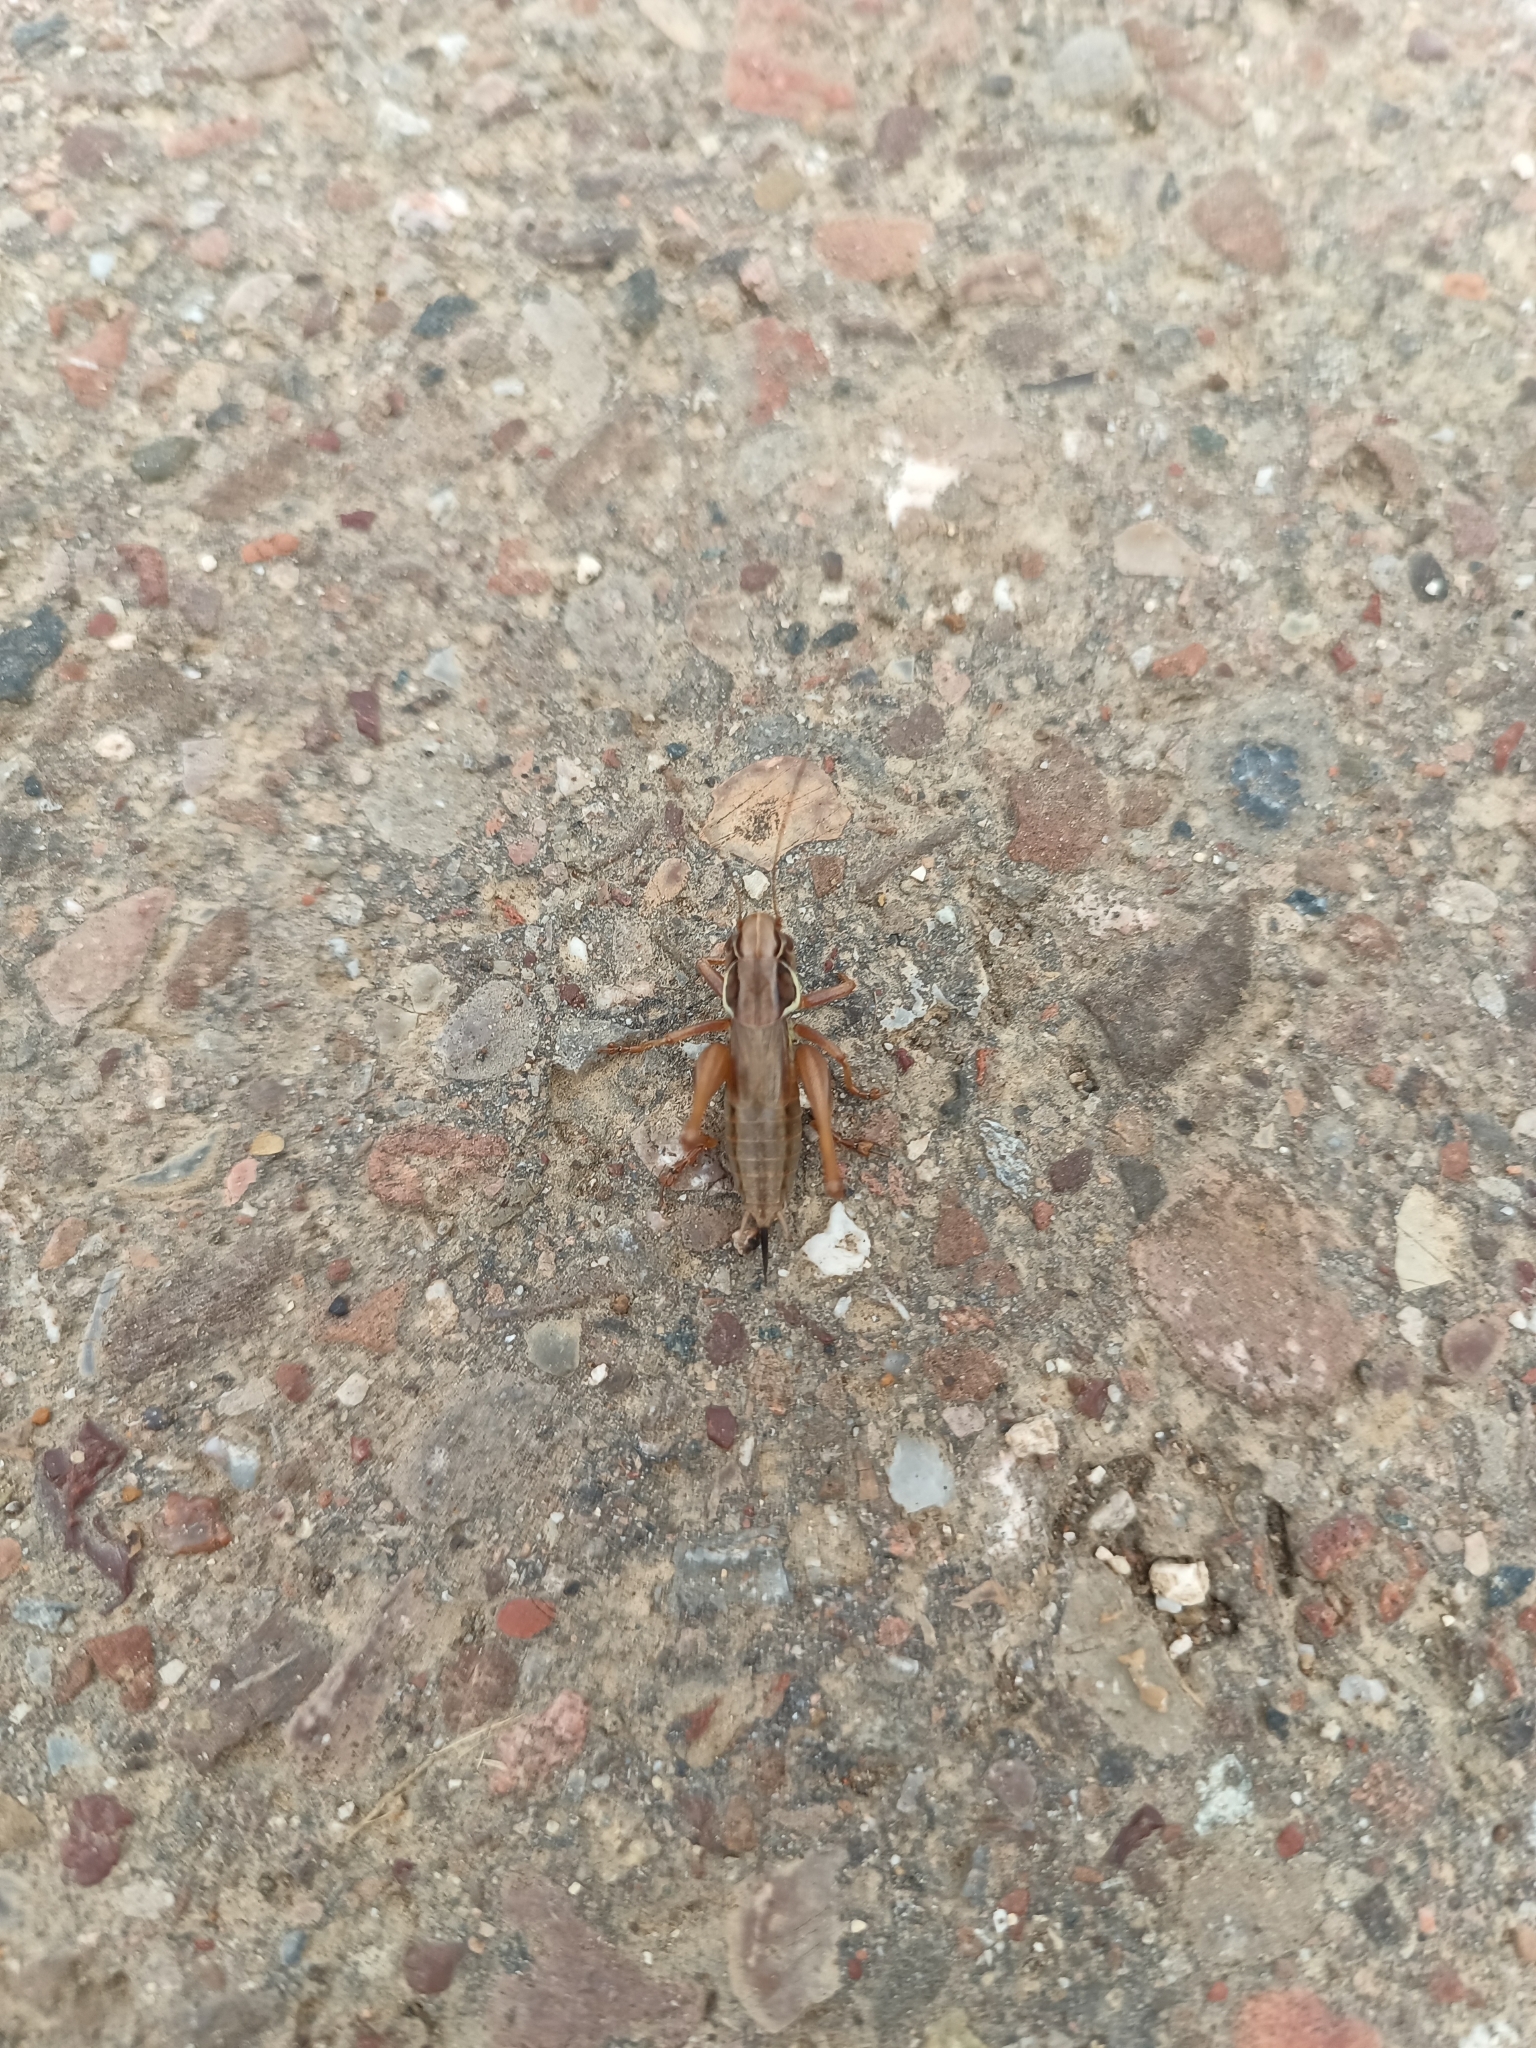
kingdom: Animalia
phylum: Arthropoda
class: Insecta
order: Orthoptera
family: Tettigoniidae
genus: Roeseliana
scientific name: Roeseliana roeselii
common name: Roesel's bush cricket
